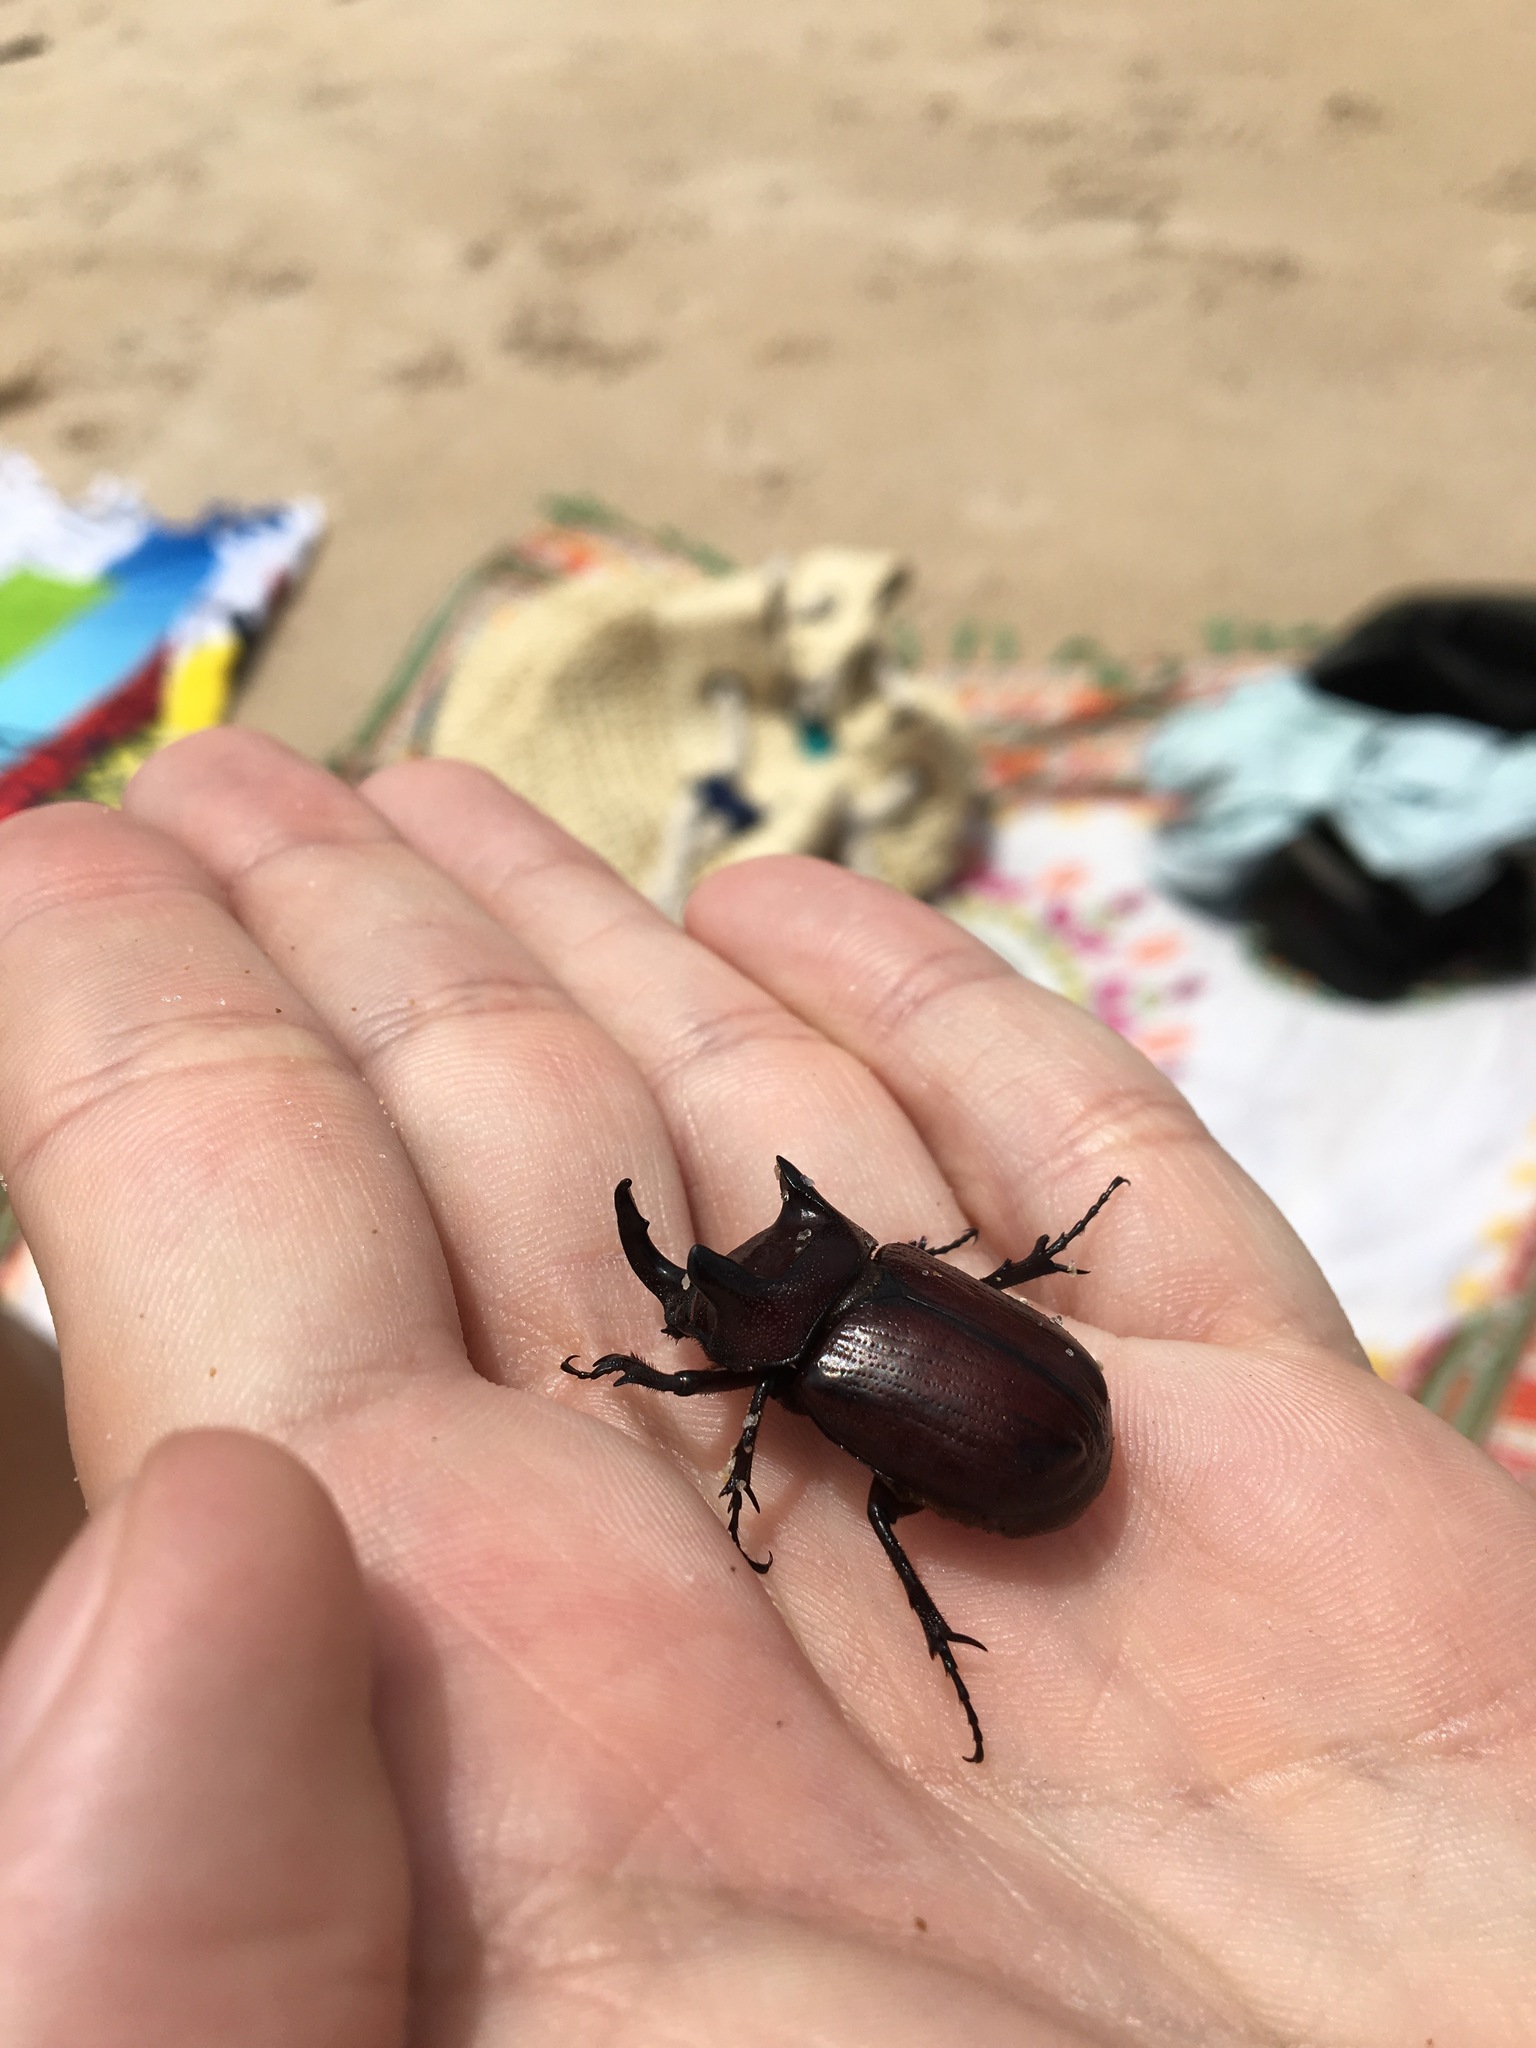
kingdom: Animalia
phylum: Arthropoda
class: Insecta
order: Coleoptera
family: Scarabaeidae
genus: Coelosis
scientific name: Coelosis bicornis
